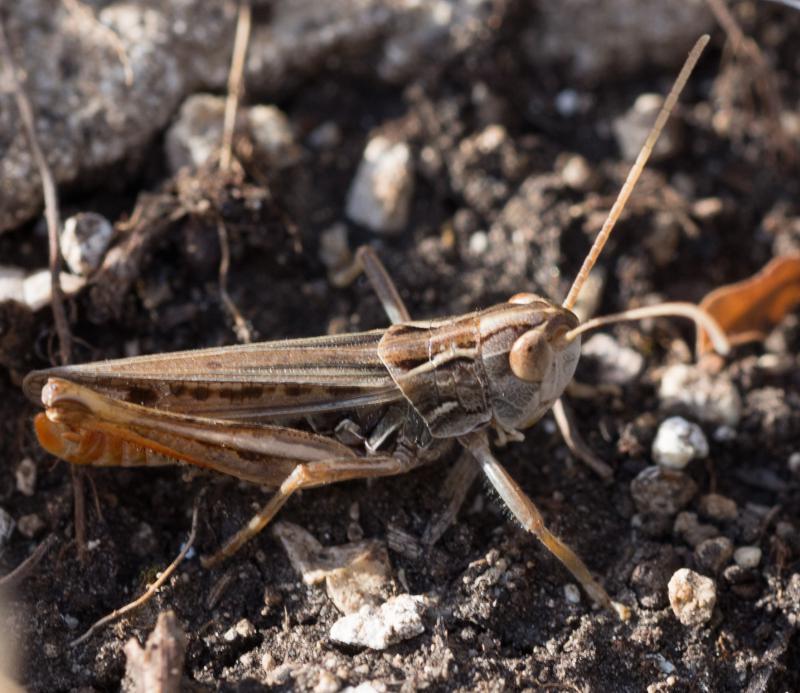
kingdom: Animalia
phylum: Arthropoda
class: Insecta
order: Orthoptera
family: Acrididae
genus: Stenobothrus
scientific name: Stenobothrus nigromaculatus
